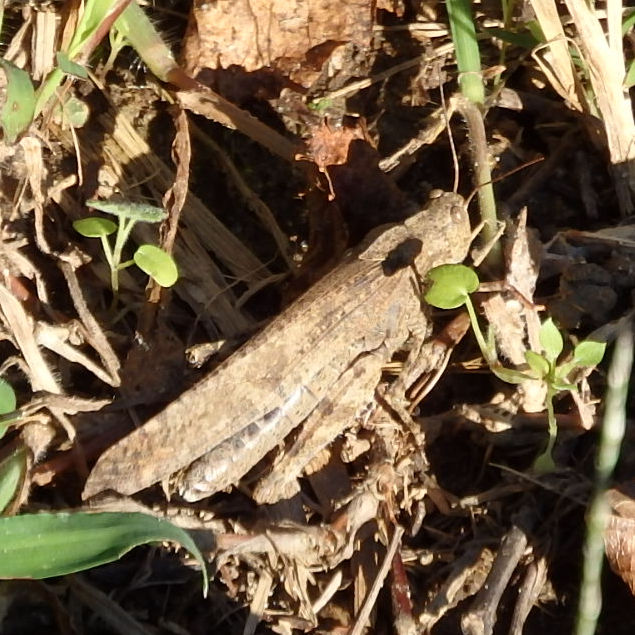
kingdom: Animalia
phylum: Arthropoda
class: Insecta
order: Orthoptera
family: Acrididae
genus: Dissosteira
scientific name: Dissosteira carolina
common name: Carolina grasshopper
